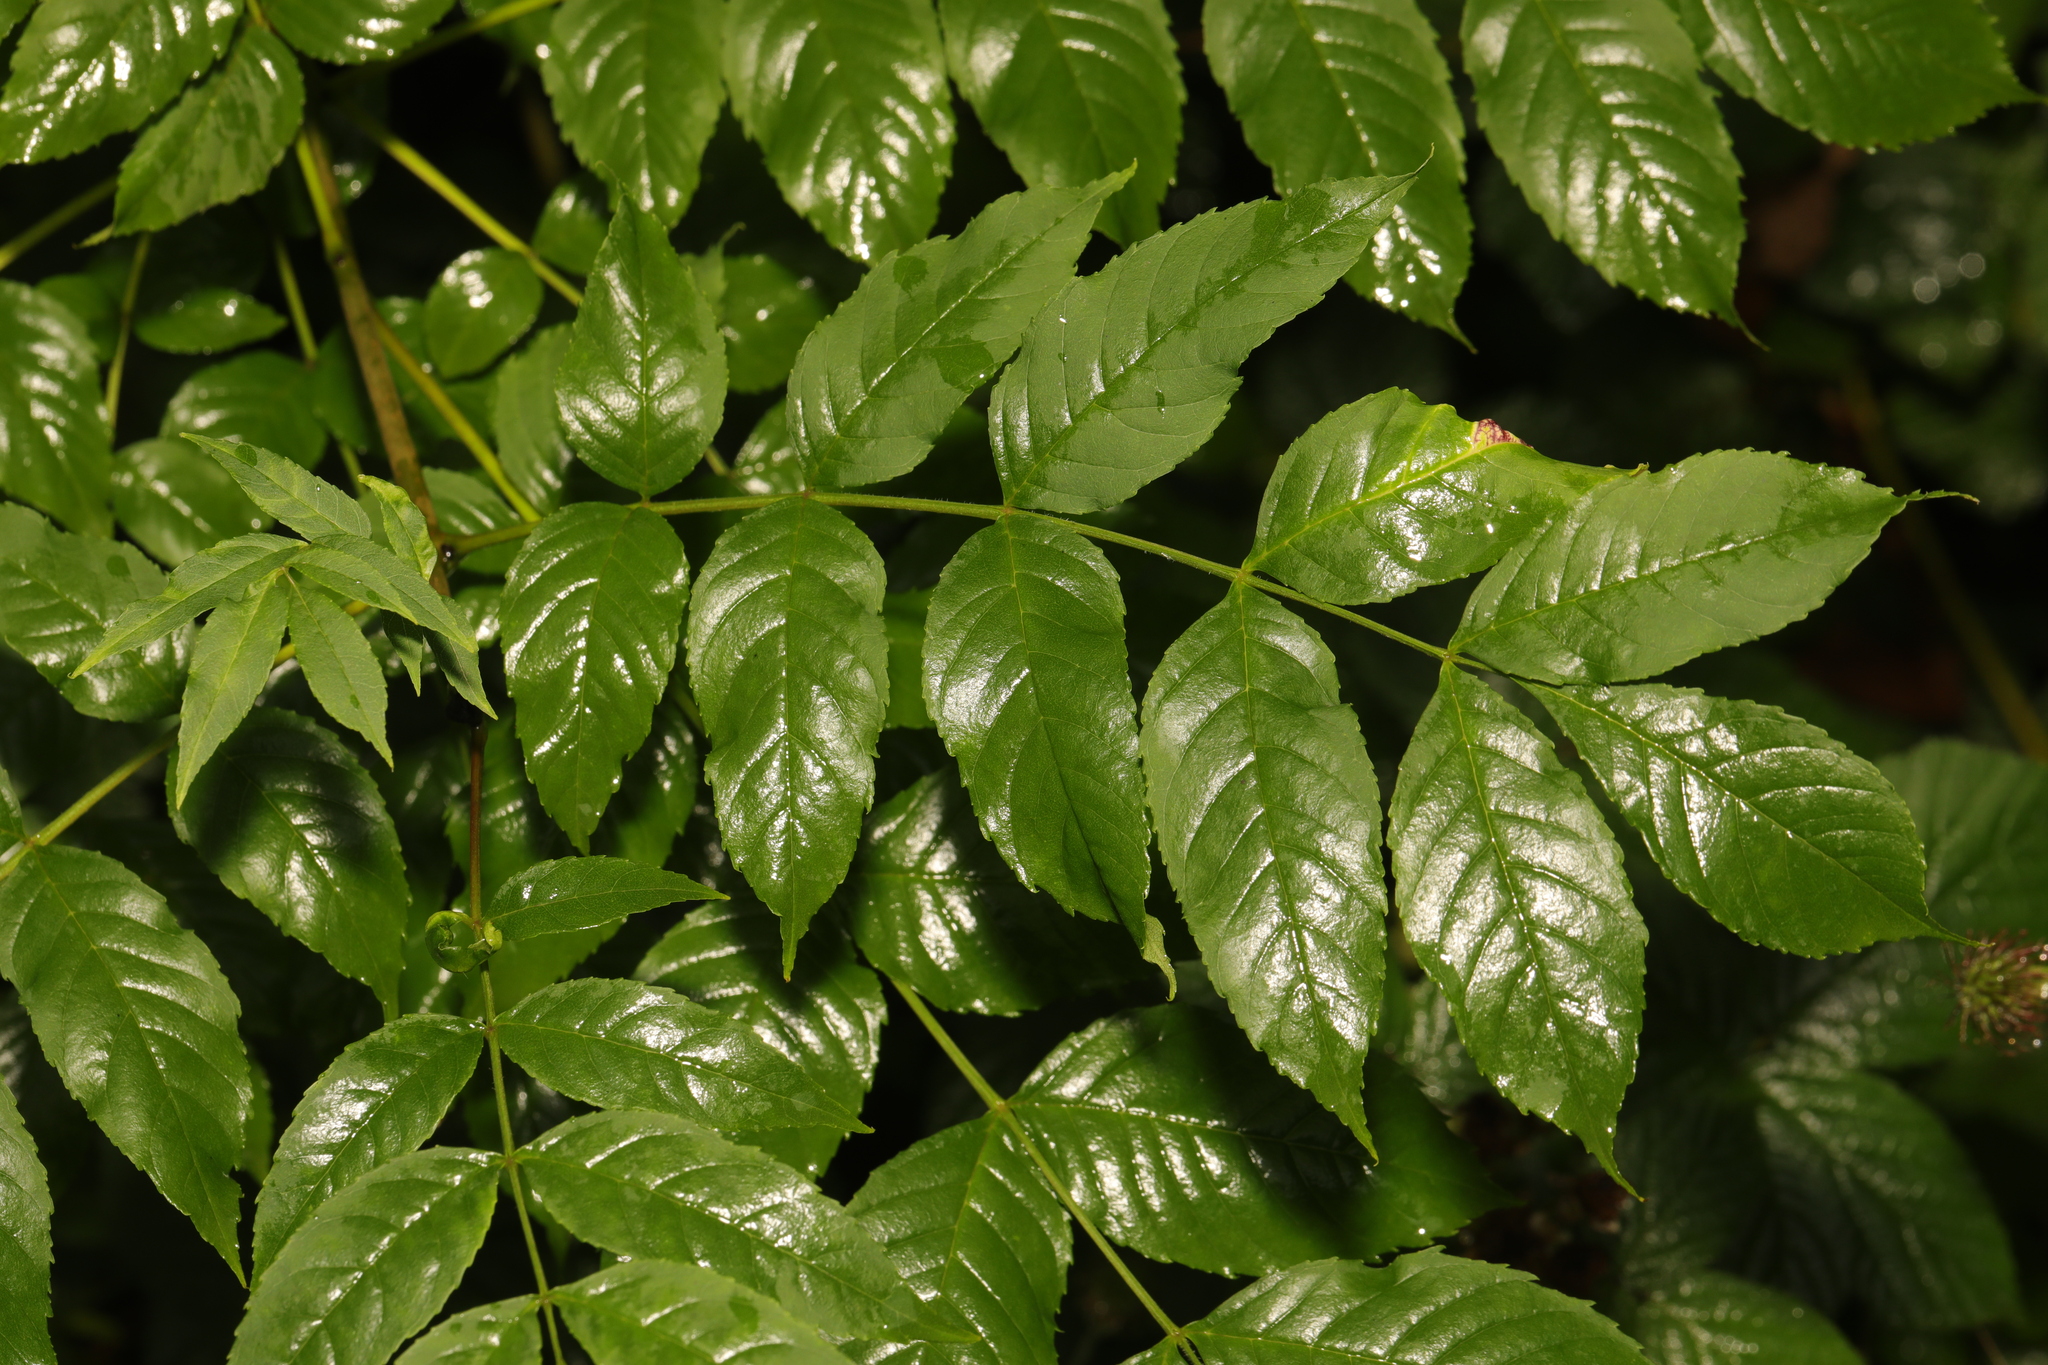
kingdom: Plantae
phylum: Tracheophyta
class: Magnoliopsida
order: Lamiales
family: Oleaceae
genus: Fraxinus
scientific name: Fraxinus excelsior
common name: European ash
